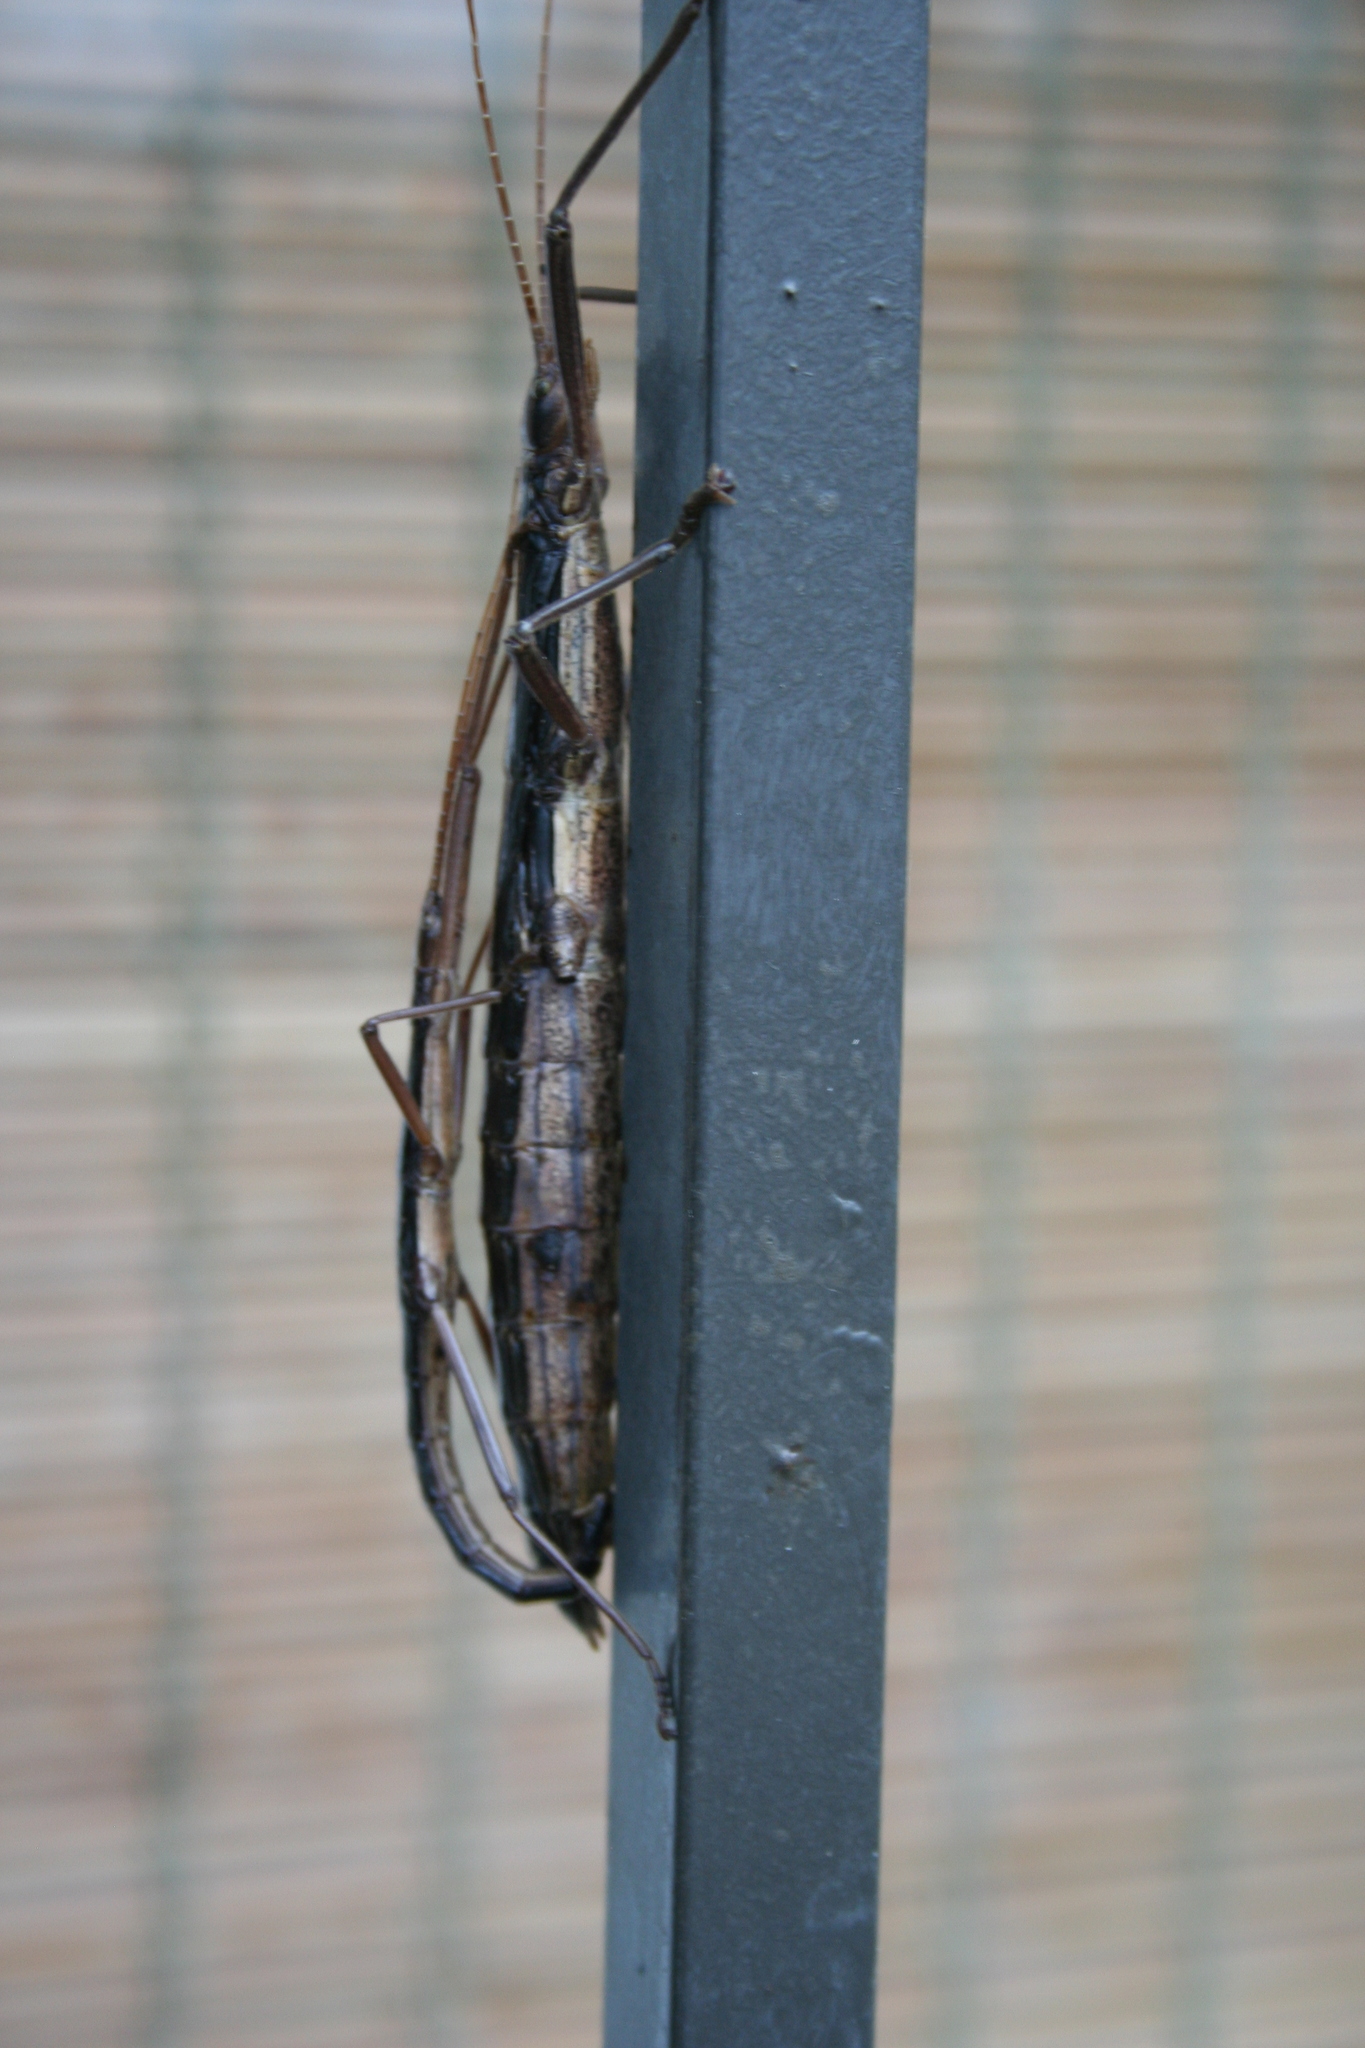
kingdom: Animalia
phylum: Arthropoda
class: Insecta
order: Phasmida
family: Pseudophasmatidae
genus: Anisomorpha
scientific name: Anisomorpha buprestoides
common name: Florida stick insect
